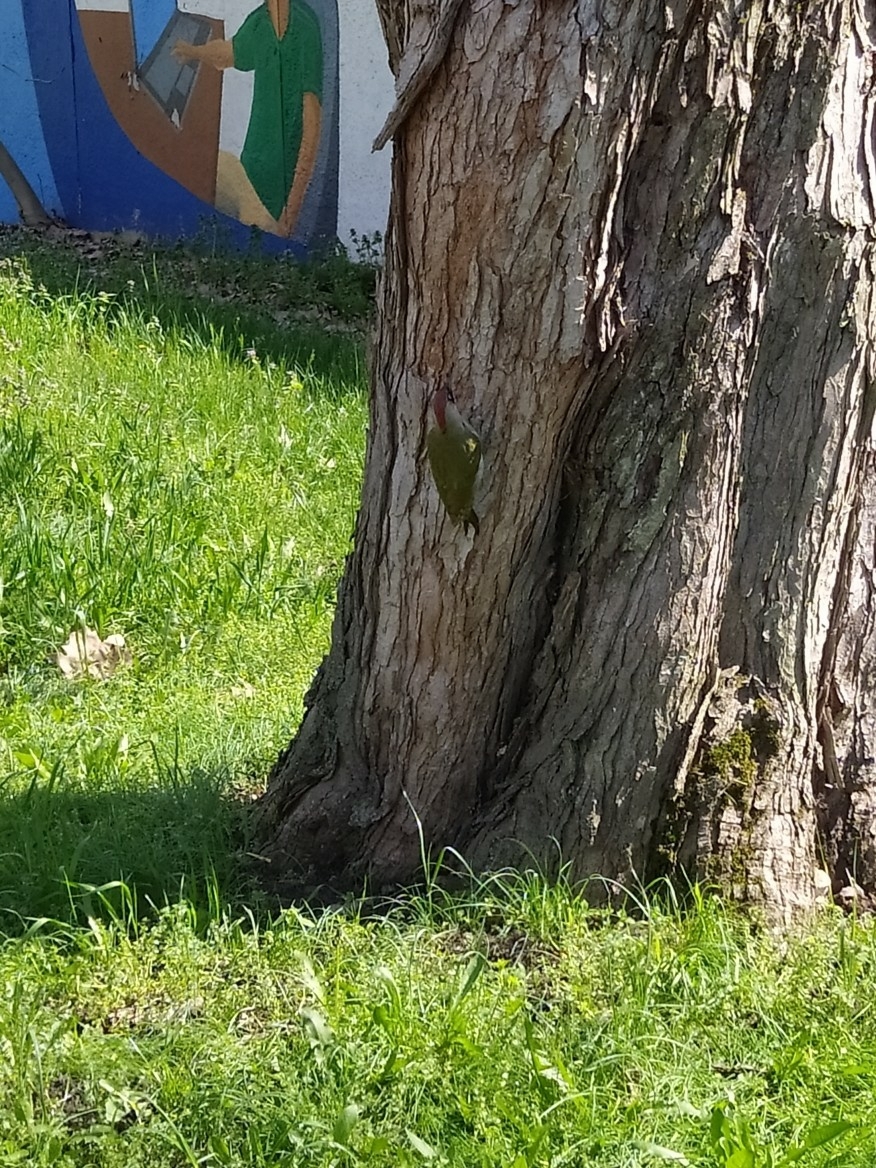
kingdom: Animalia
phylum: Chordata
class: Aves
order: Piciformes
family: Picidae
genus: Picus
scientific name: Picus viridis
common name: European green woodpecker
